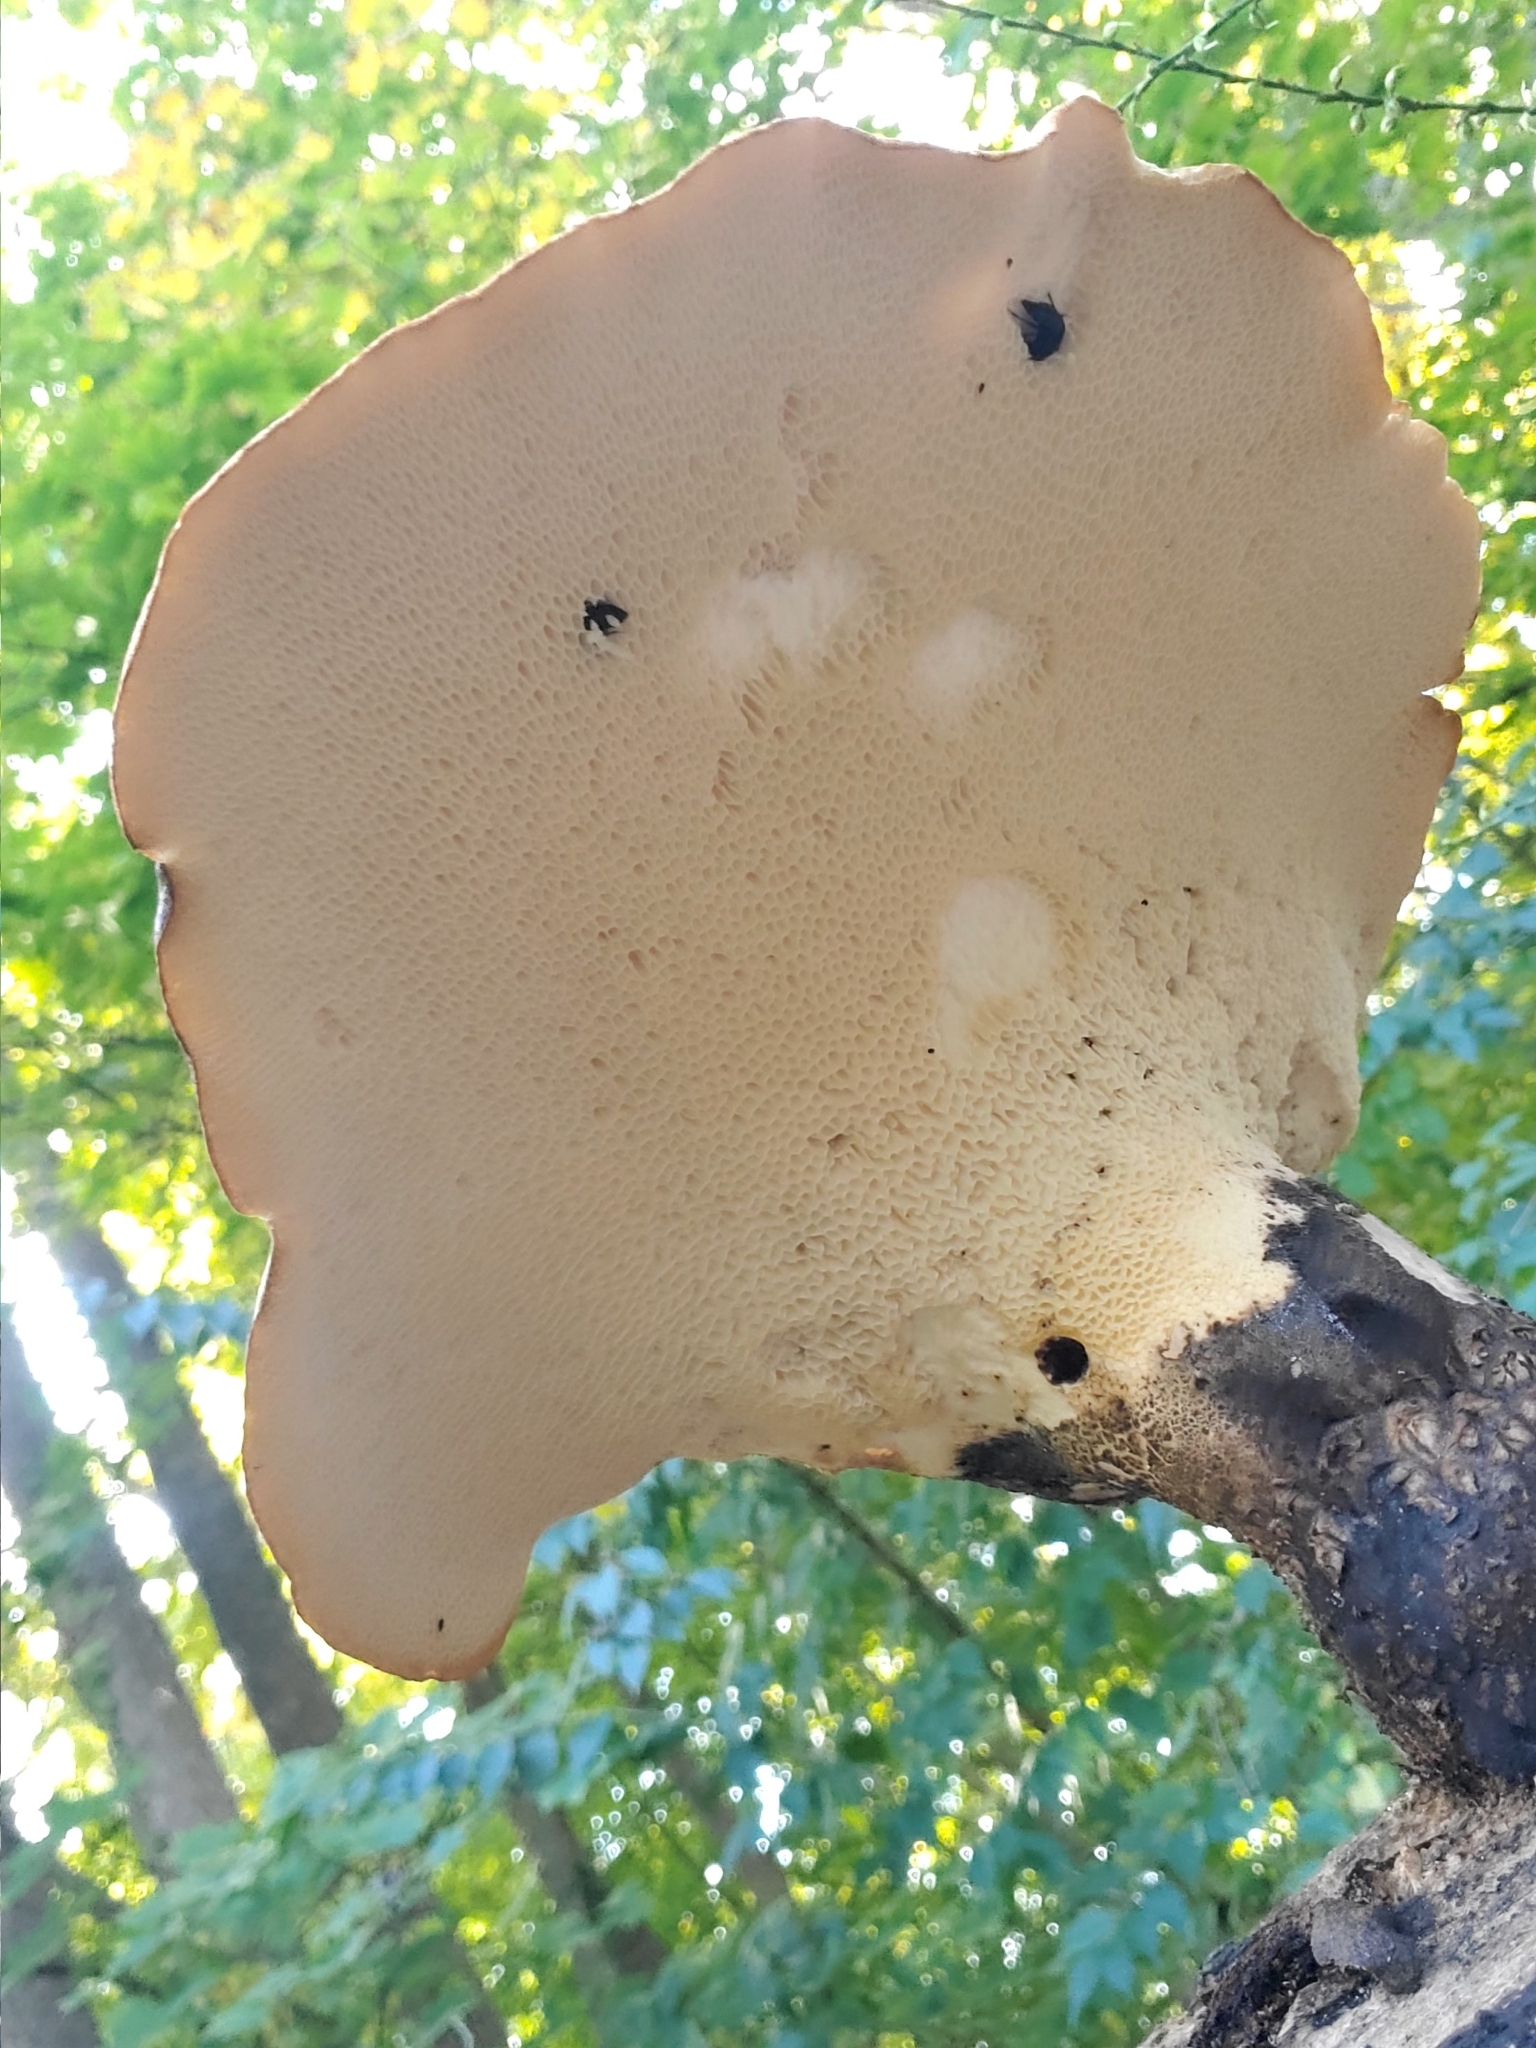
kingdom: Fungi
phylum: Basidiomycota
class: Agaricomycetes
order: Polyporales
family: Polyporaceae
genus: Cerioporus
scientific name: Cerioporus squamosus
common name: Dryad's saddle
